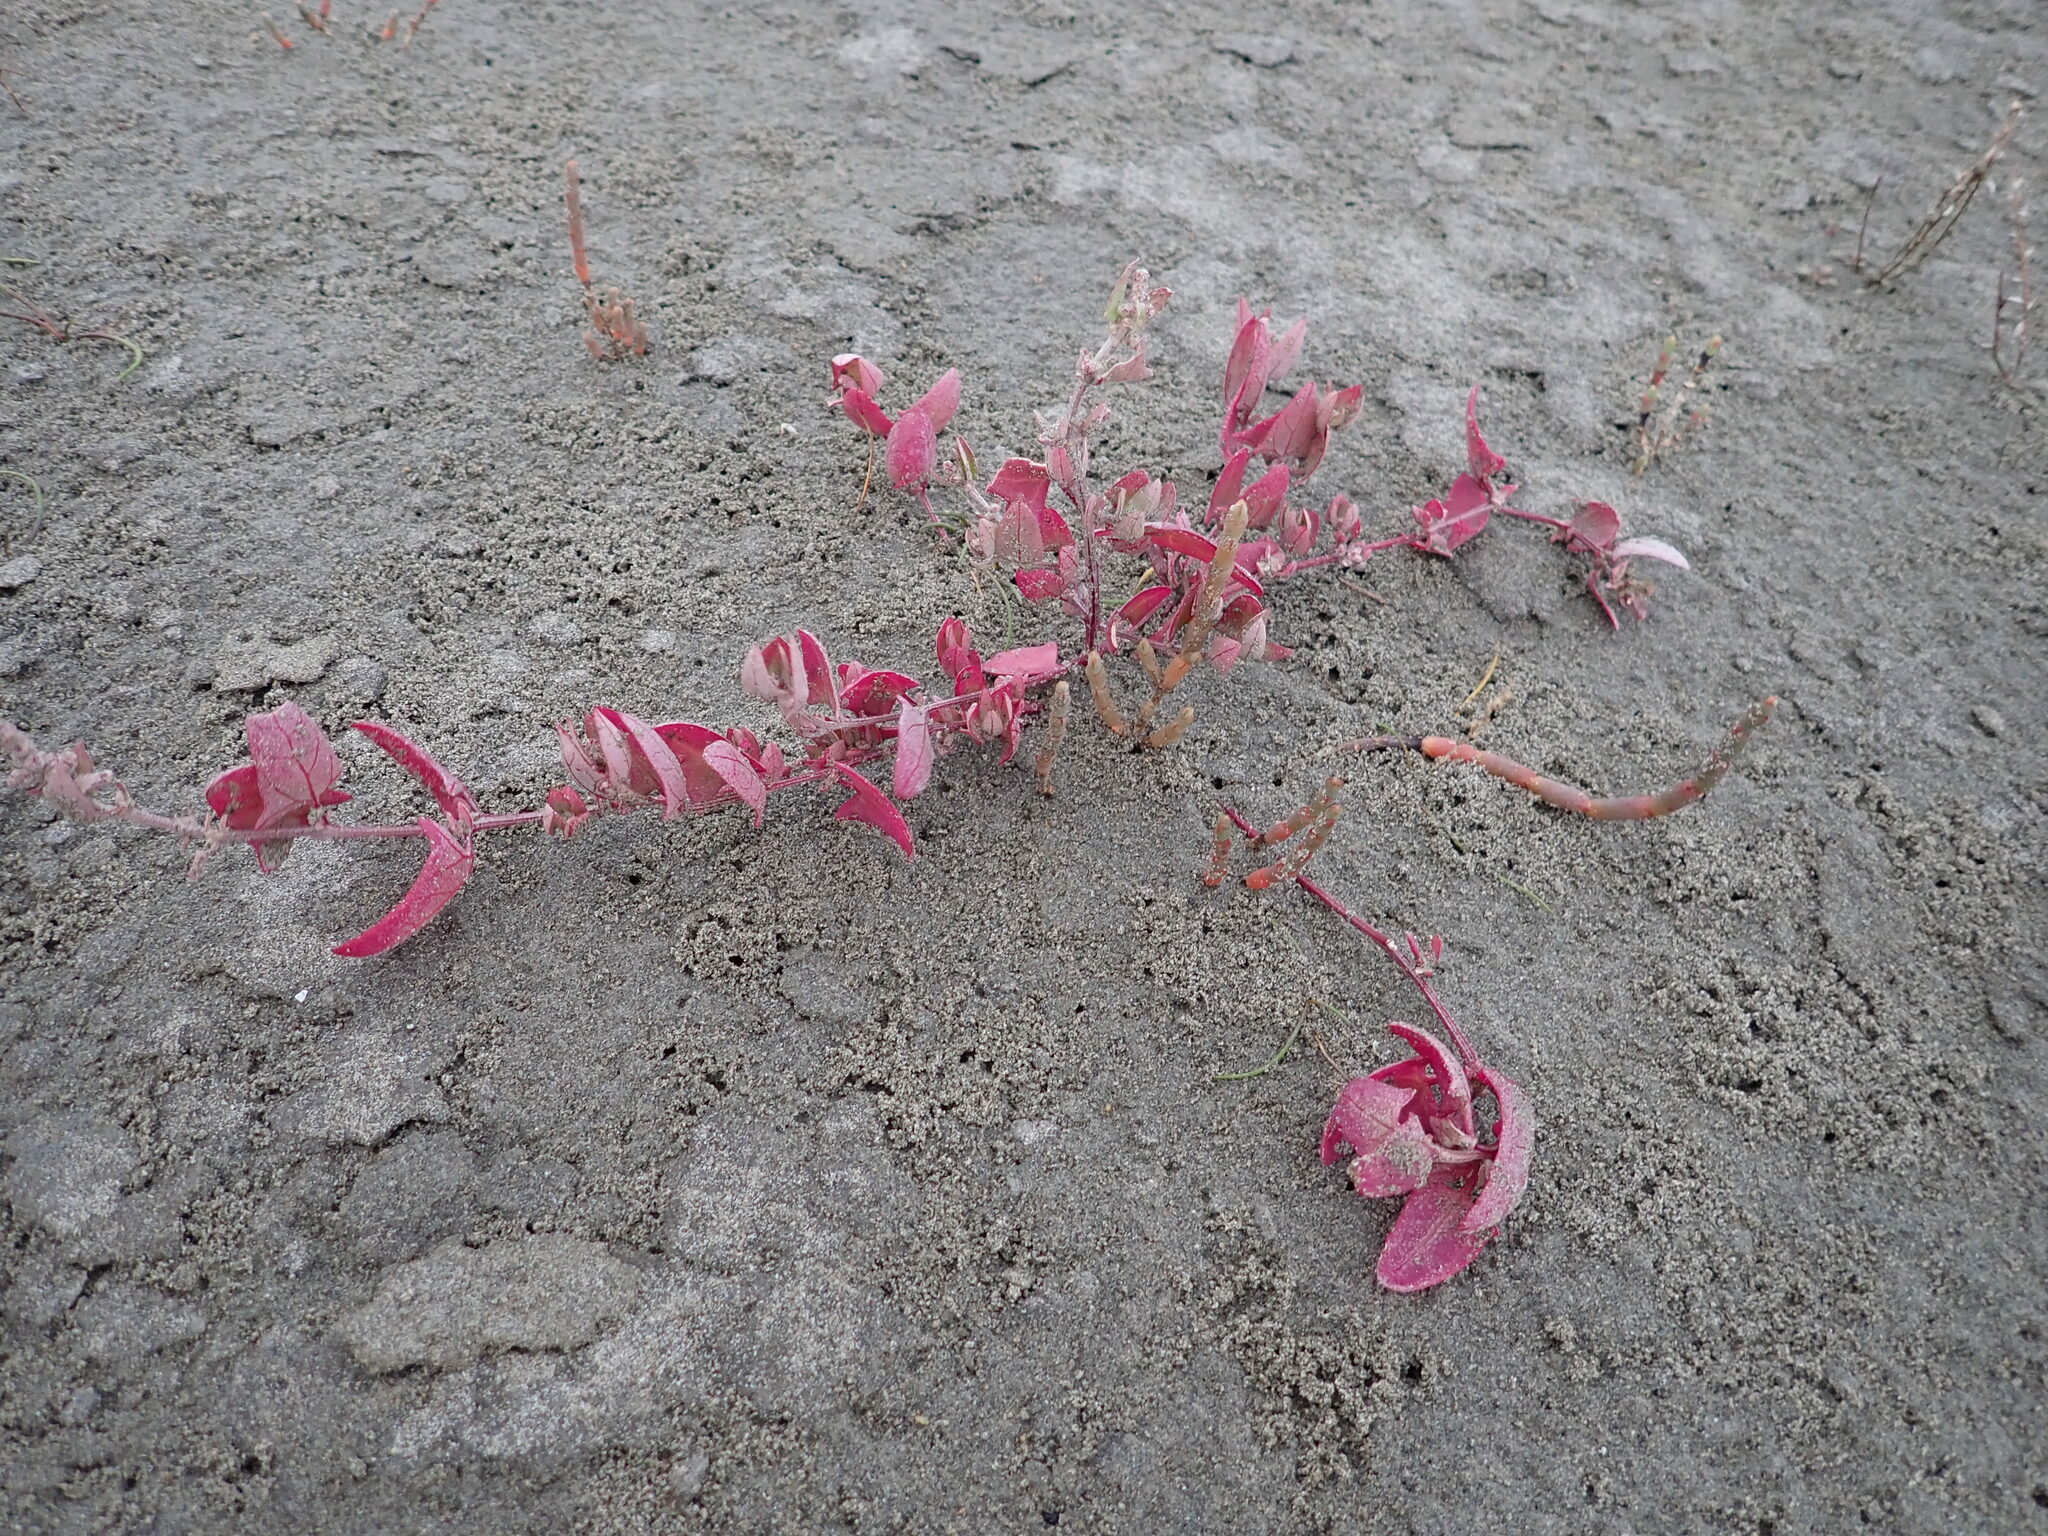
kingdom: Plantae
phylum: Tracheophyta
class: Magnoliopsida
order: Caryophyllales
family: Amaranthaceae
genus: Atriplex
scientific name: Atriplex prostrata
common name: Spear-leaved orache
